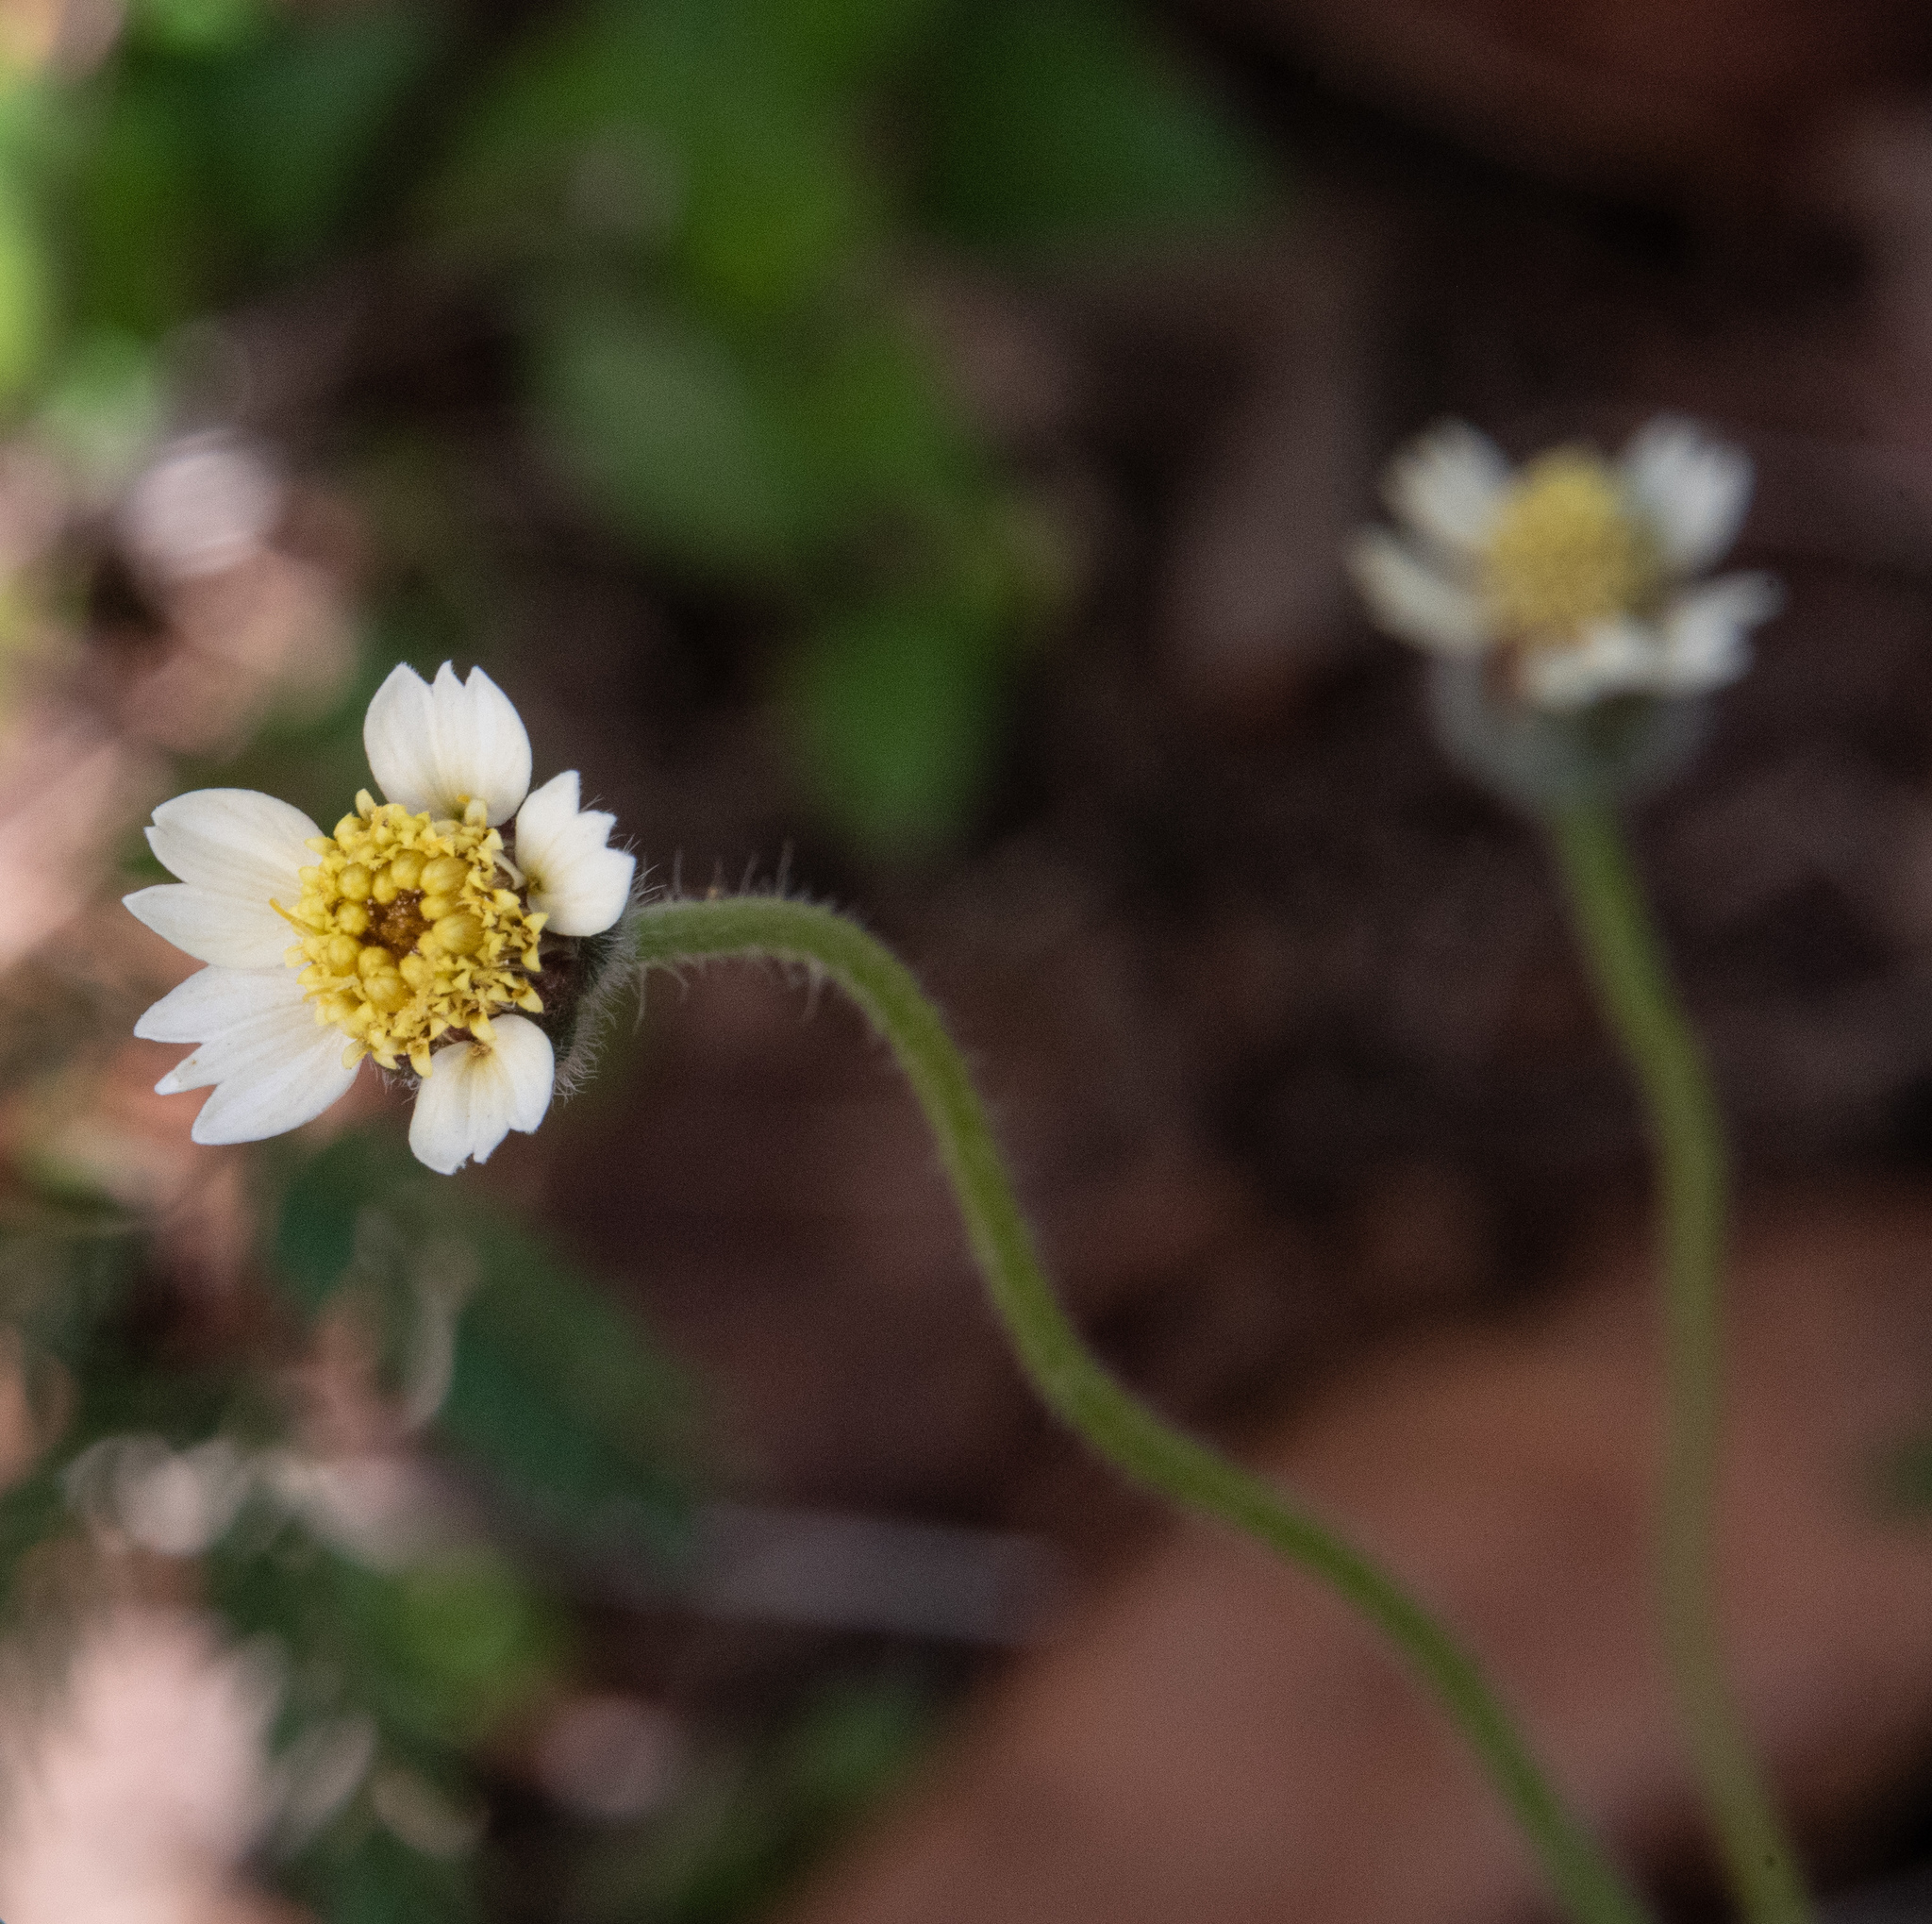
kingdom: Plantae
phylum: Tracheophyta
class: Magnoliopsida
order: Asterales
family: Asteraceae
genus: Tridax
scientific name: Tridax procumbens
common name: Coatbuttons
